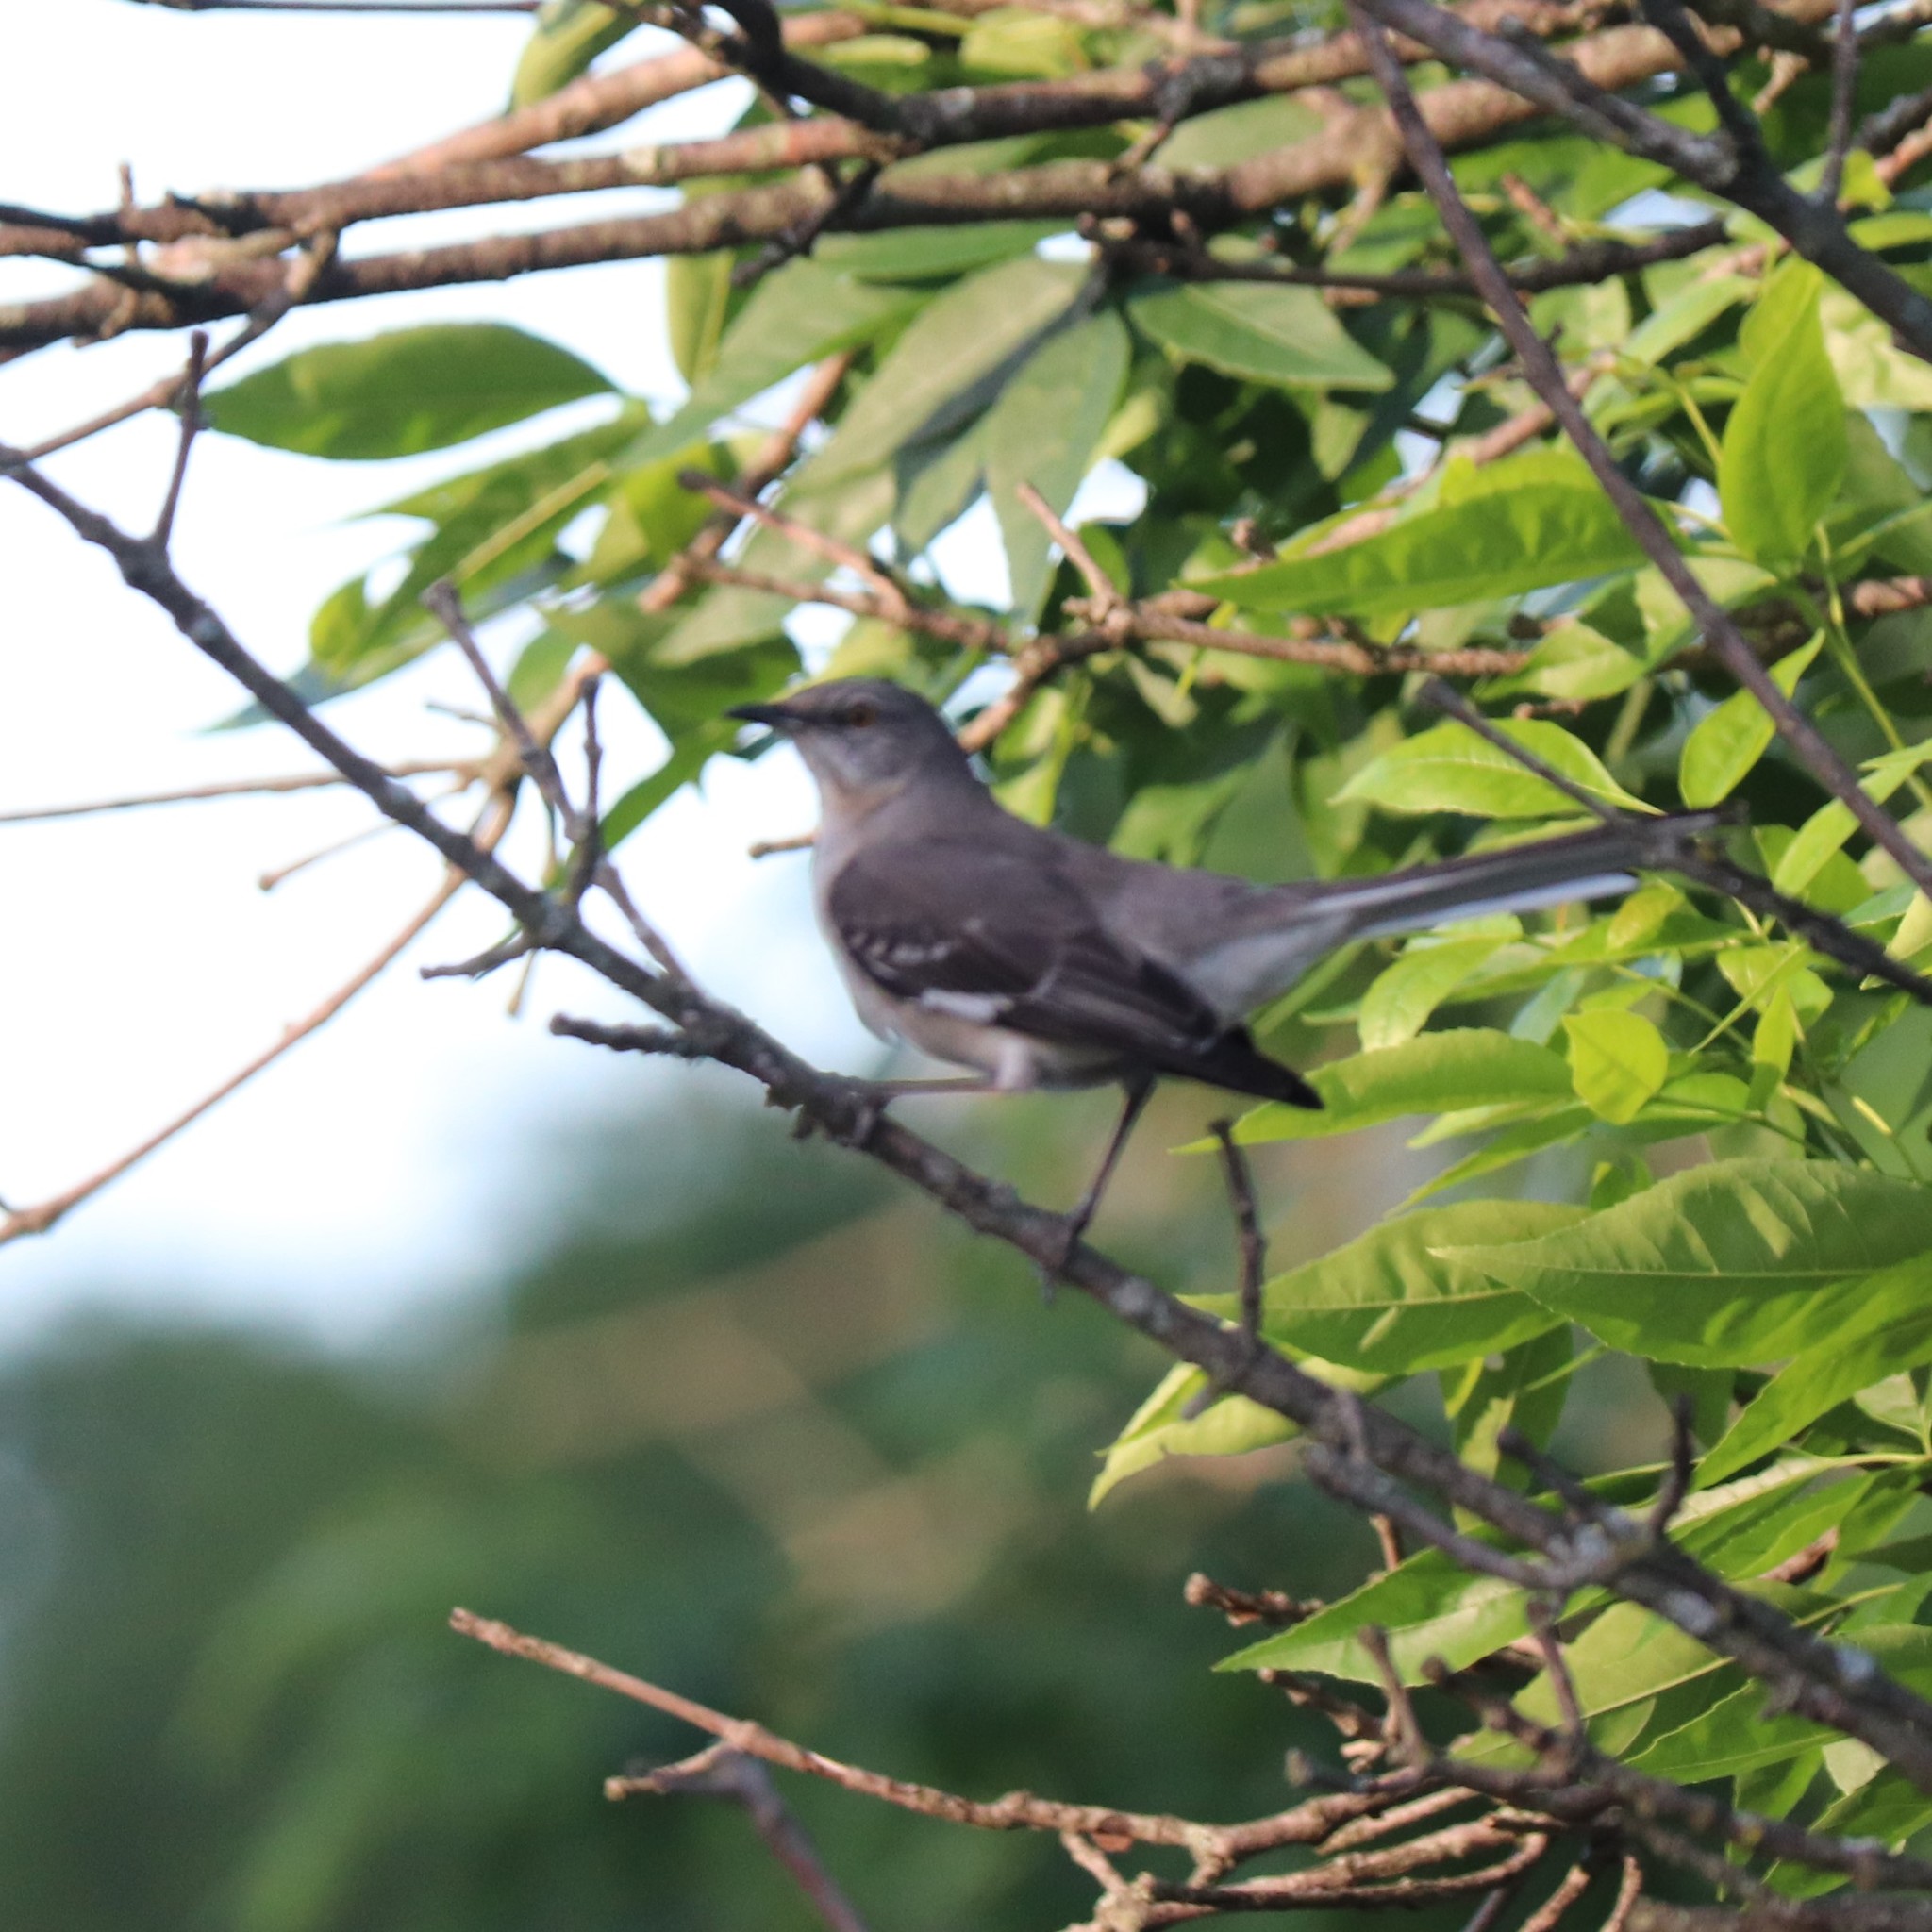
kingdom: Animalia
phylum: Chordata
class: Aves
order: Passeriformes
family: Mimidae
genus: Mimus
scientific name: Mimus polyglottos
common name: Northern mockingbird
